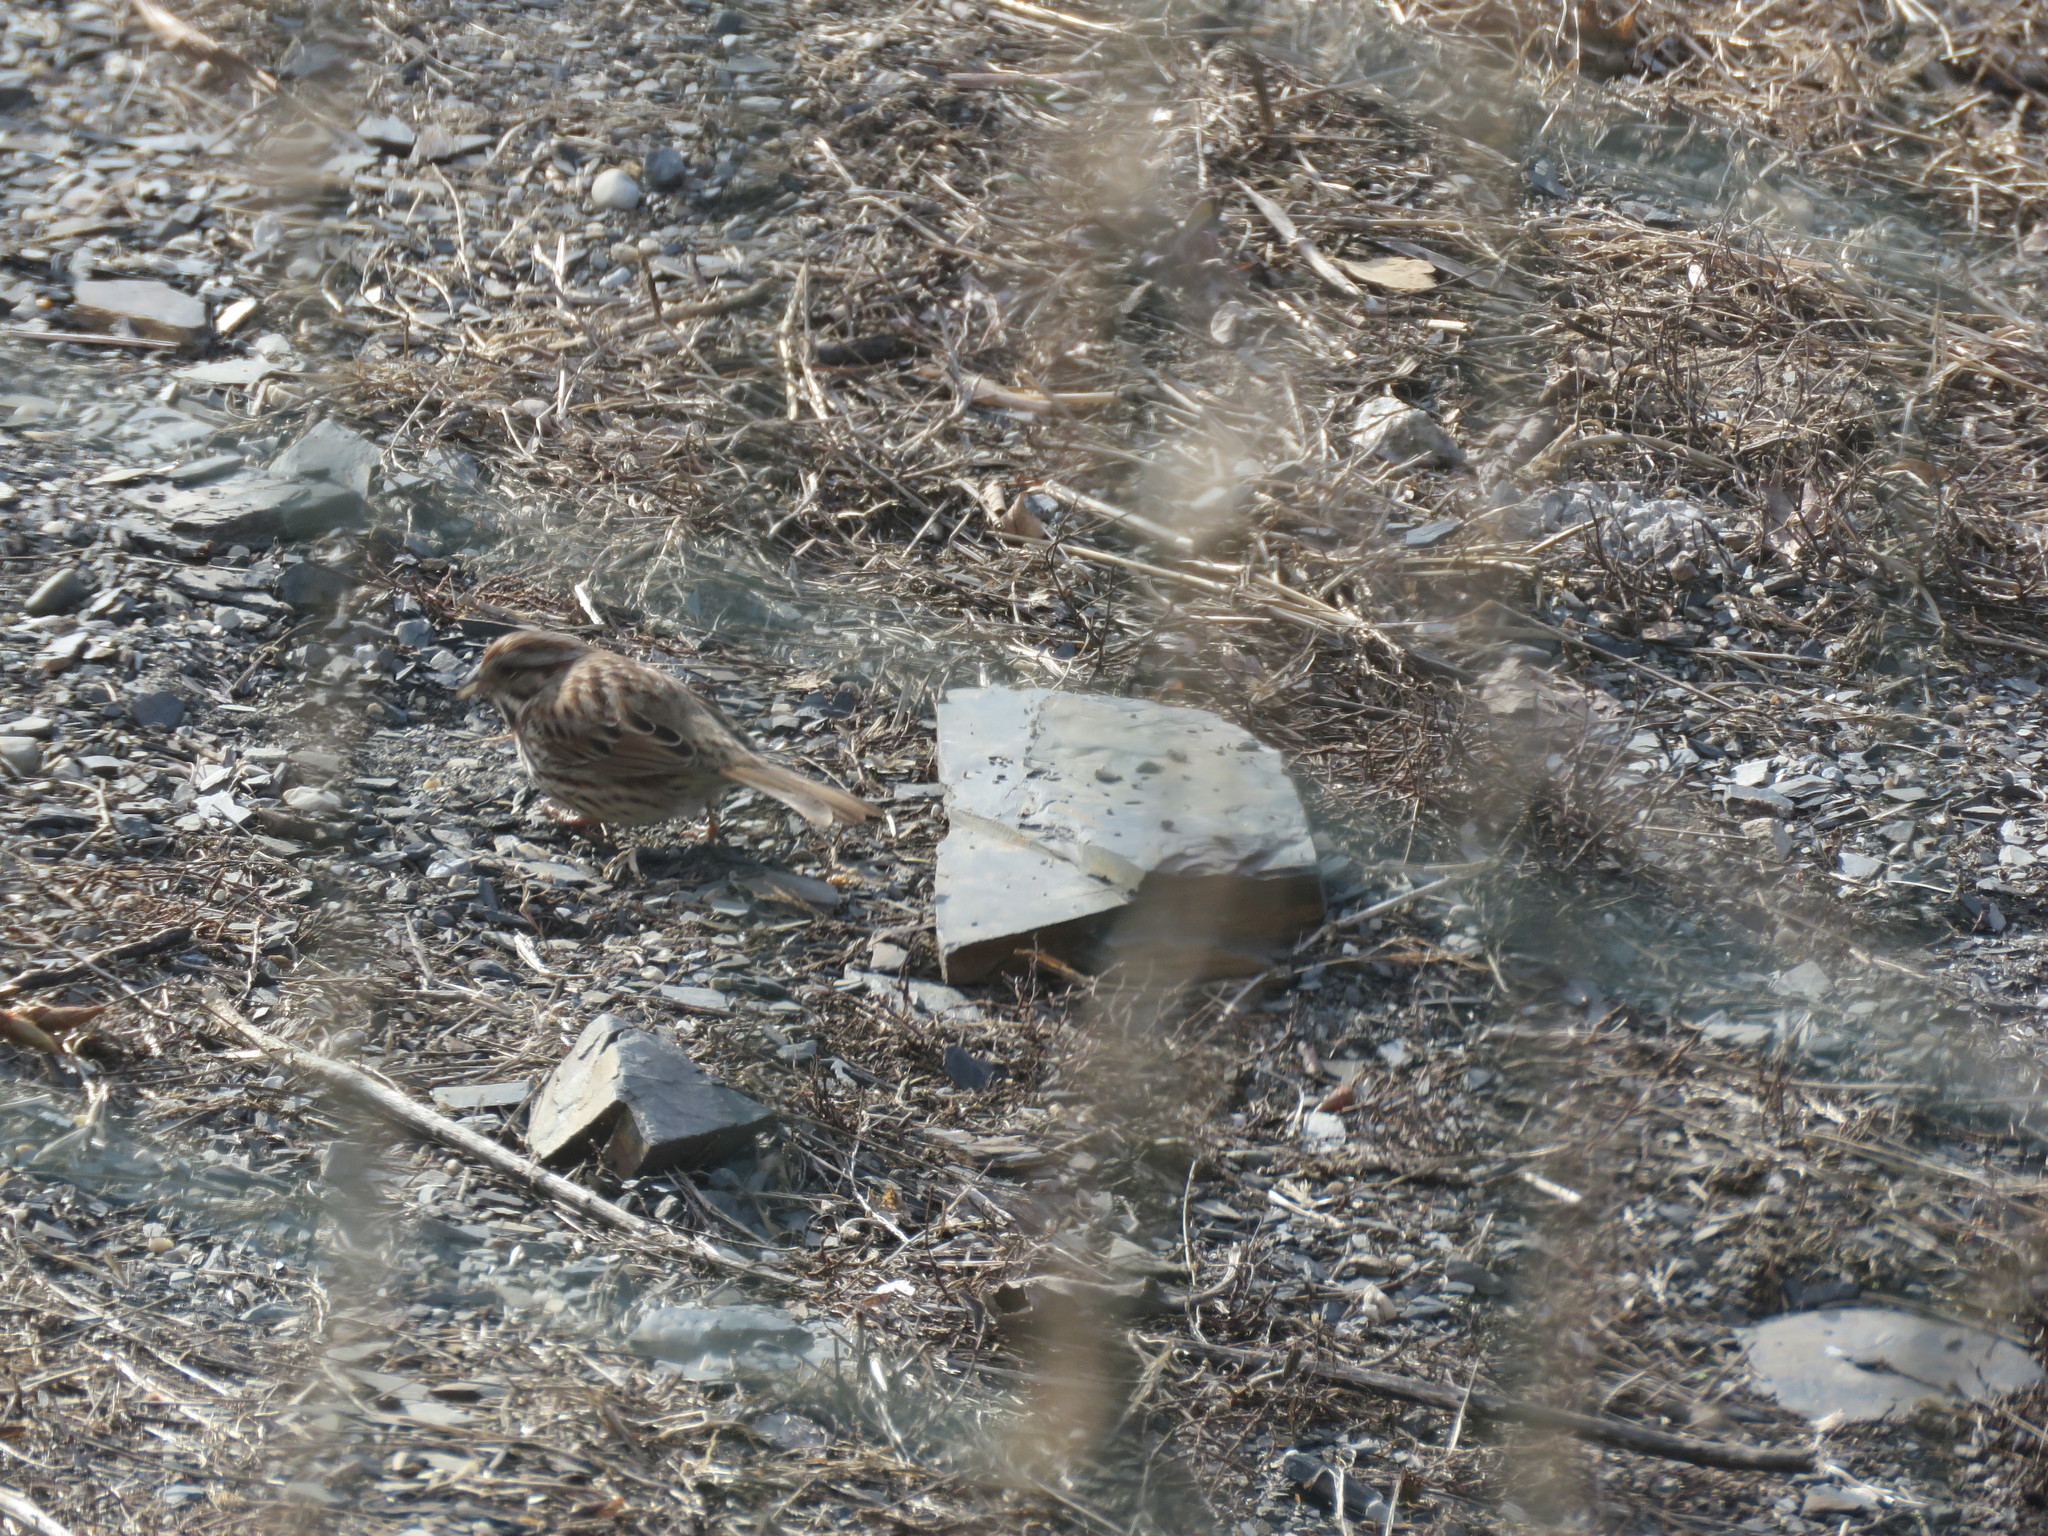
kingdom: Animalia
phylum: Chordata
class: Aves
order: Passeriformes
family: Passerellidae
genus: Melospiza
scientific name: Melospiza melodia
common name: Song sparrow
